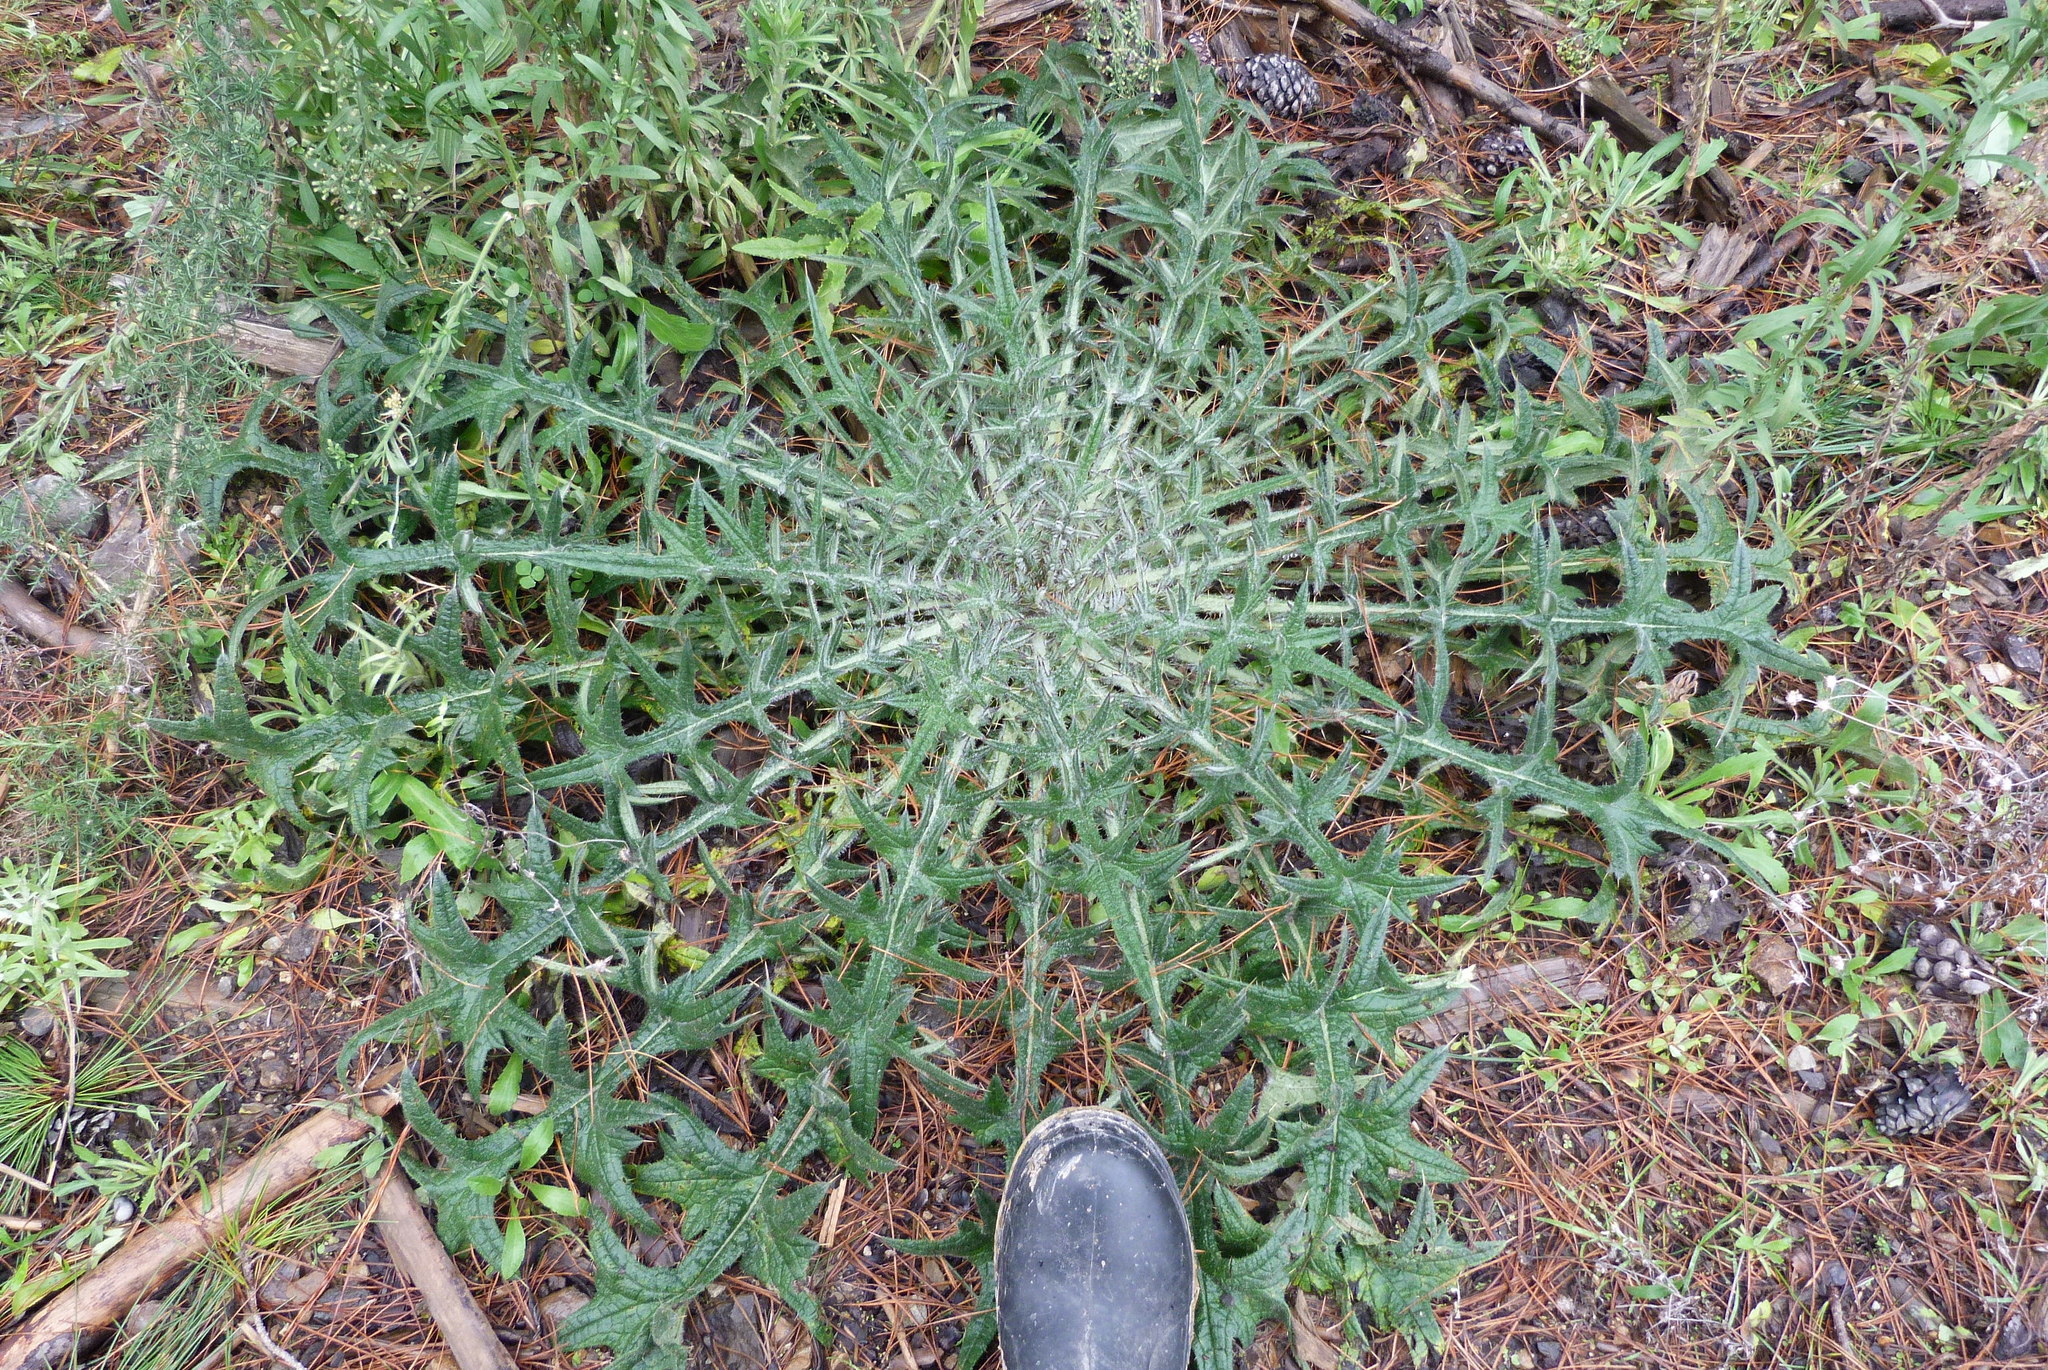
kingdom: Plantae
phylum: Tracheophyta
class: Magnoliopsida
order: Asterales
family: Asteraceae
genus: Cirsium
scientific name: Cirsium vulgare
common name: Bull thistle
